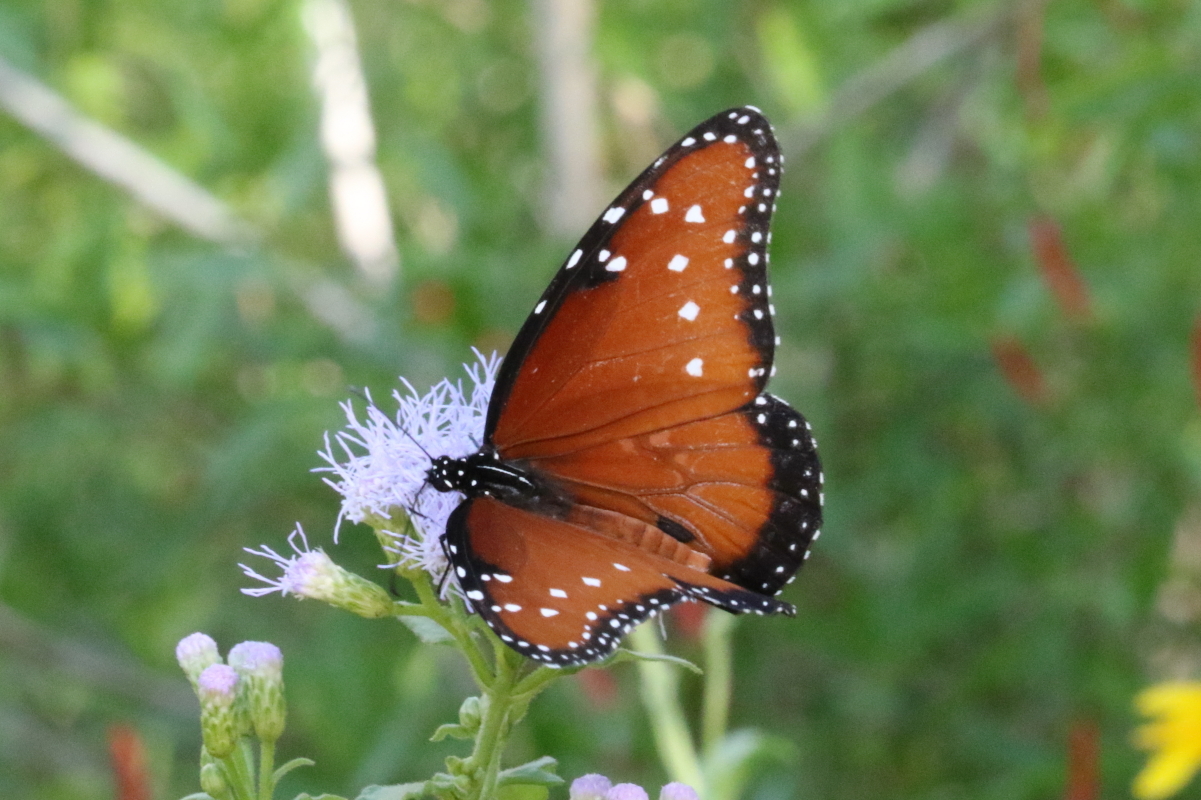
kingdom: Animalia
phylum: Arthropoda
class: Insecta
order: Lepidoptera
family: Nymphalidae
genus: Danaus
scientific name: Danaus gilippus
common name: Queen
